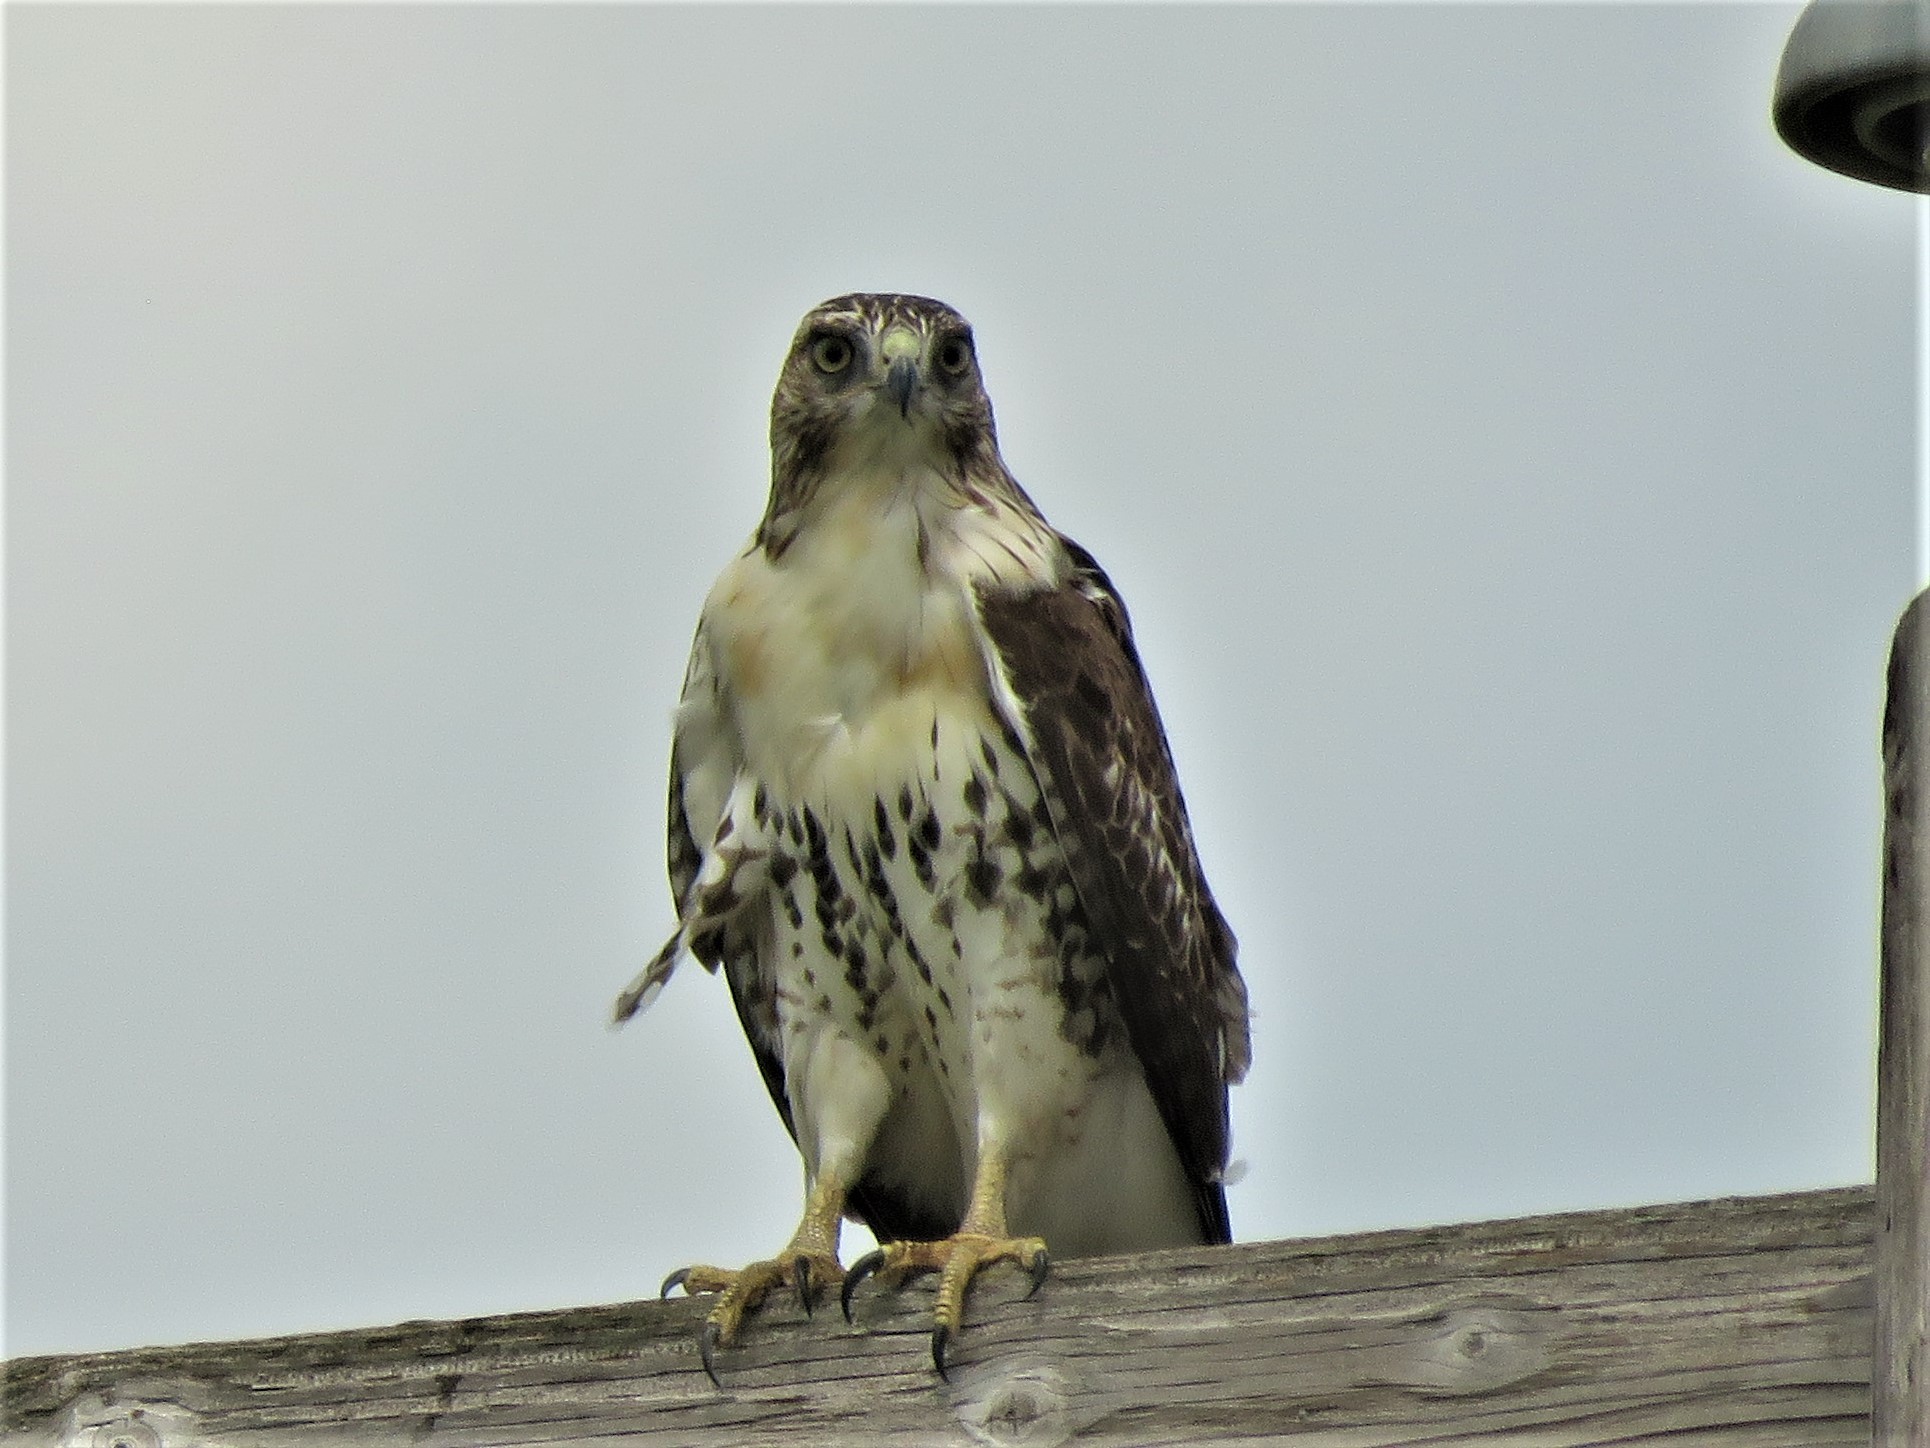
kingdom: Animalia
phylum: Chordata
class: Aves
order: Accipitriformes
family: Accipitridae
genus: Buteo
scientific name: Buteo jamaicensis
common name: Red-tailed hawk
